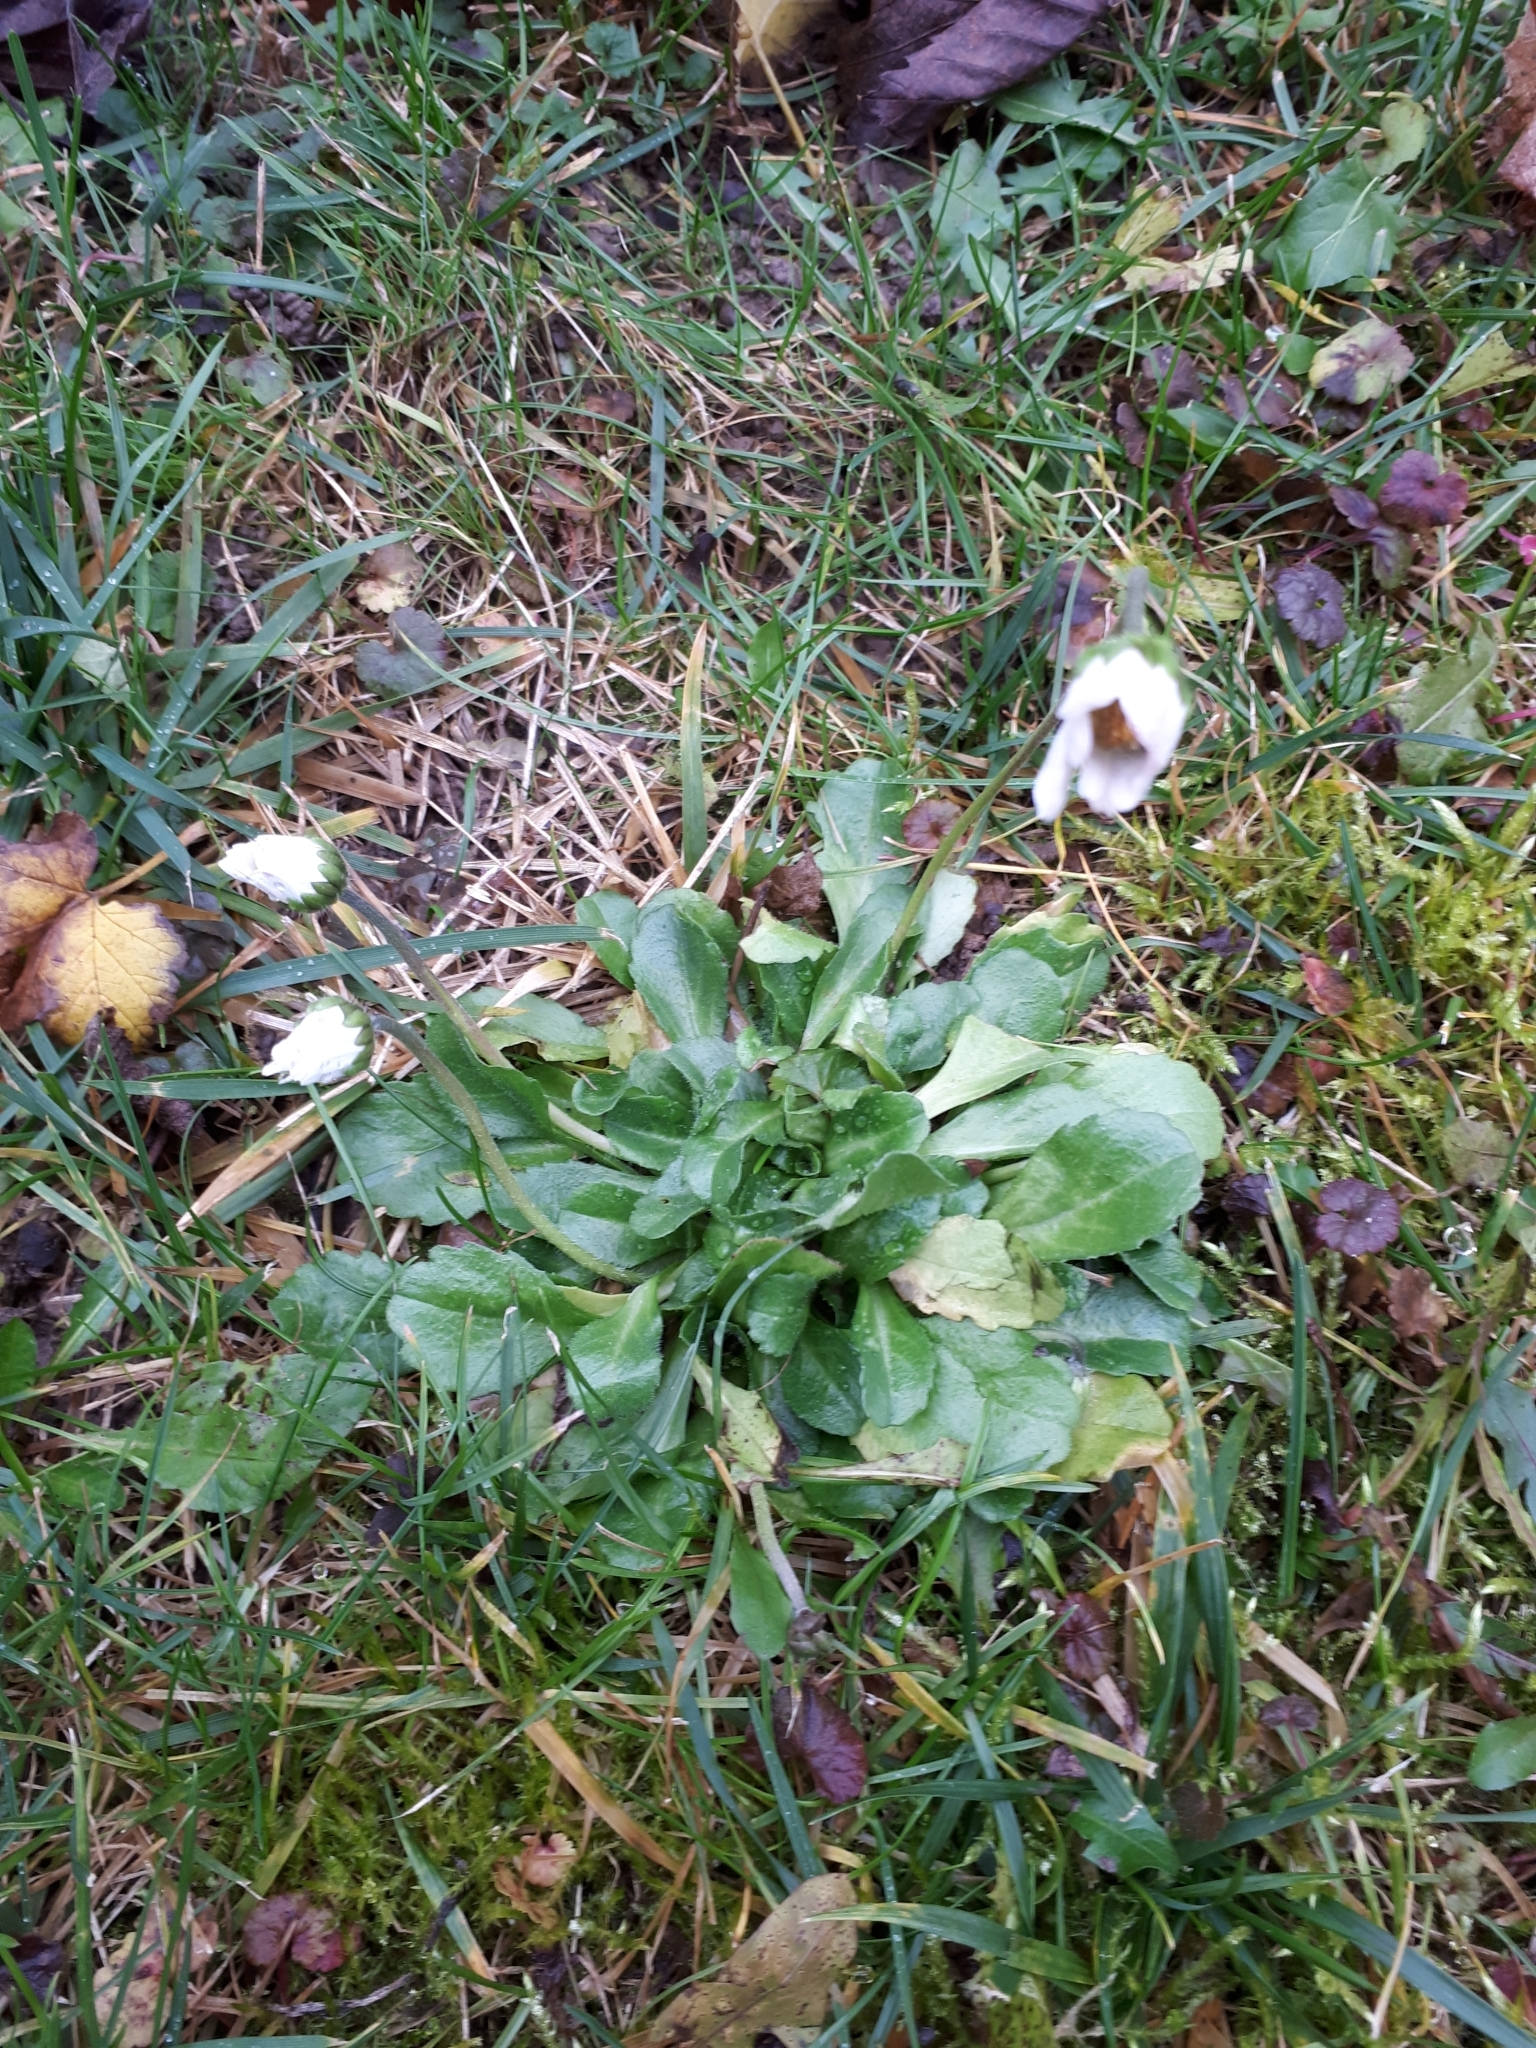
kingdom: Plantae
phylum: Tracheophyta
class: Magnoliopsida
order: Asterales
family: Asteraceae
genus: Bellis
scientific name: Bellis perennis
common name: Lawndaisy
